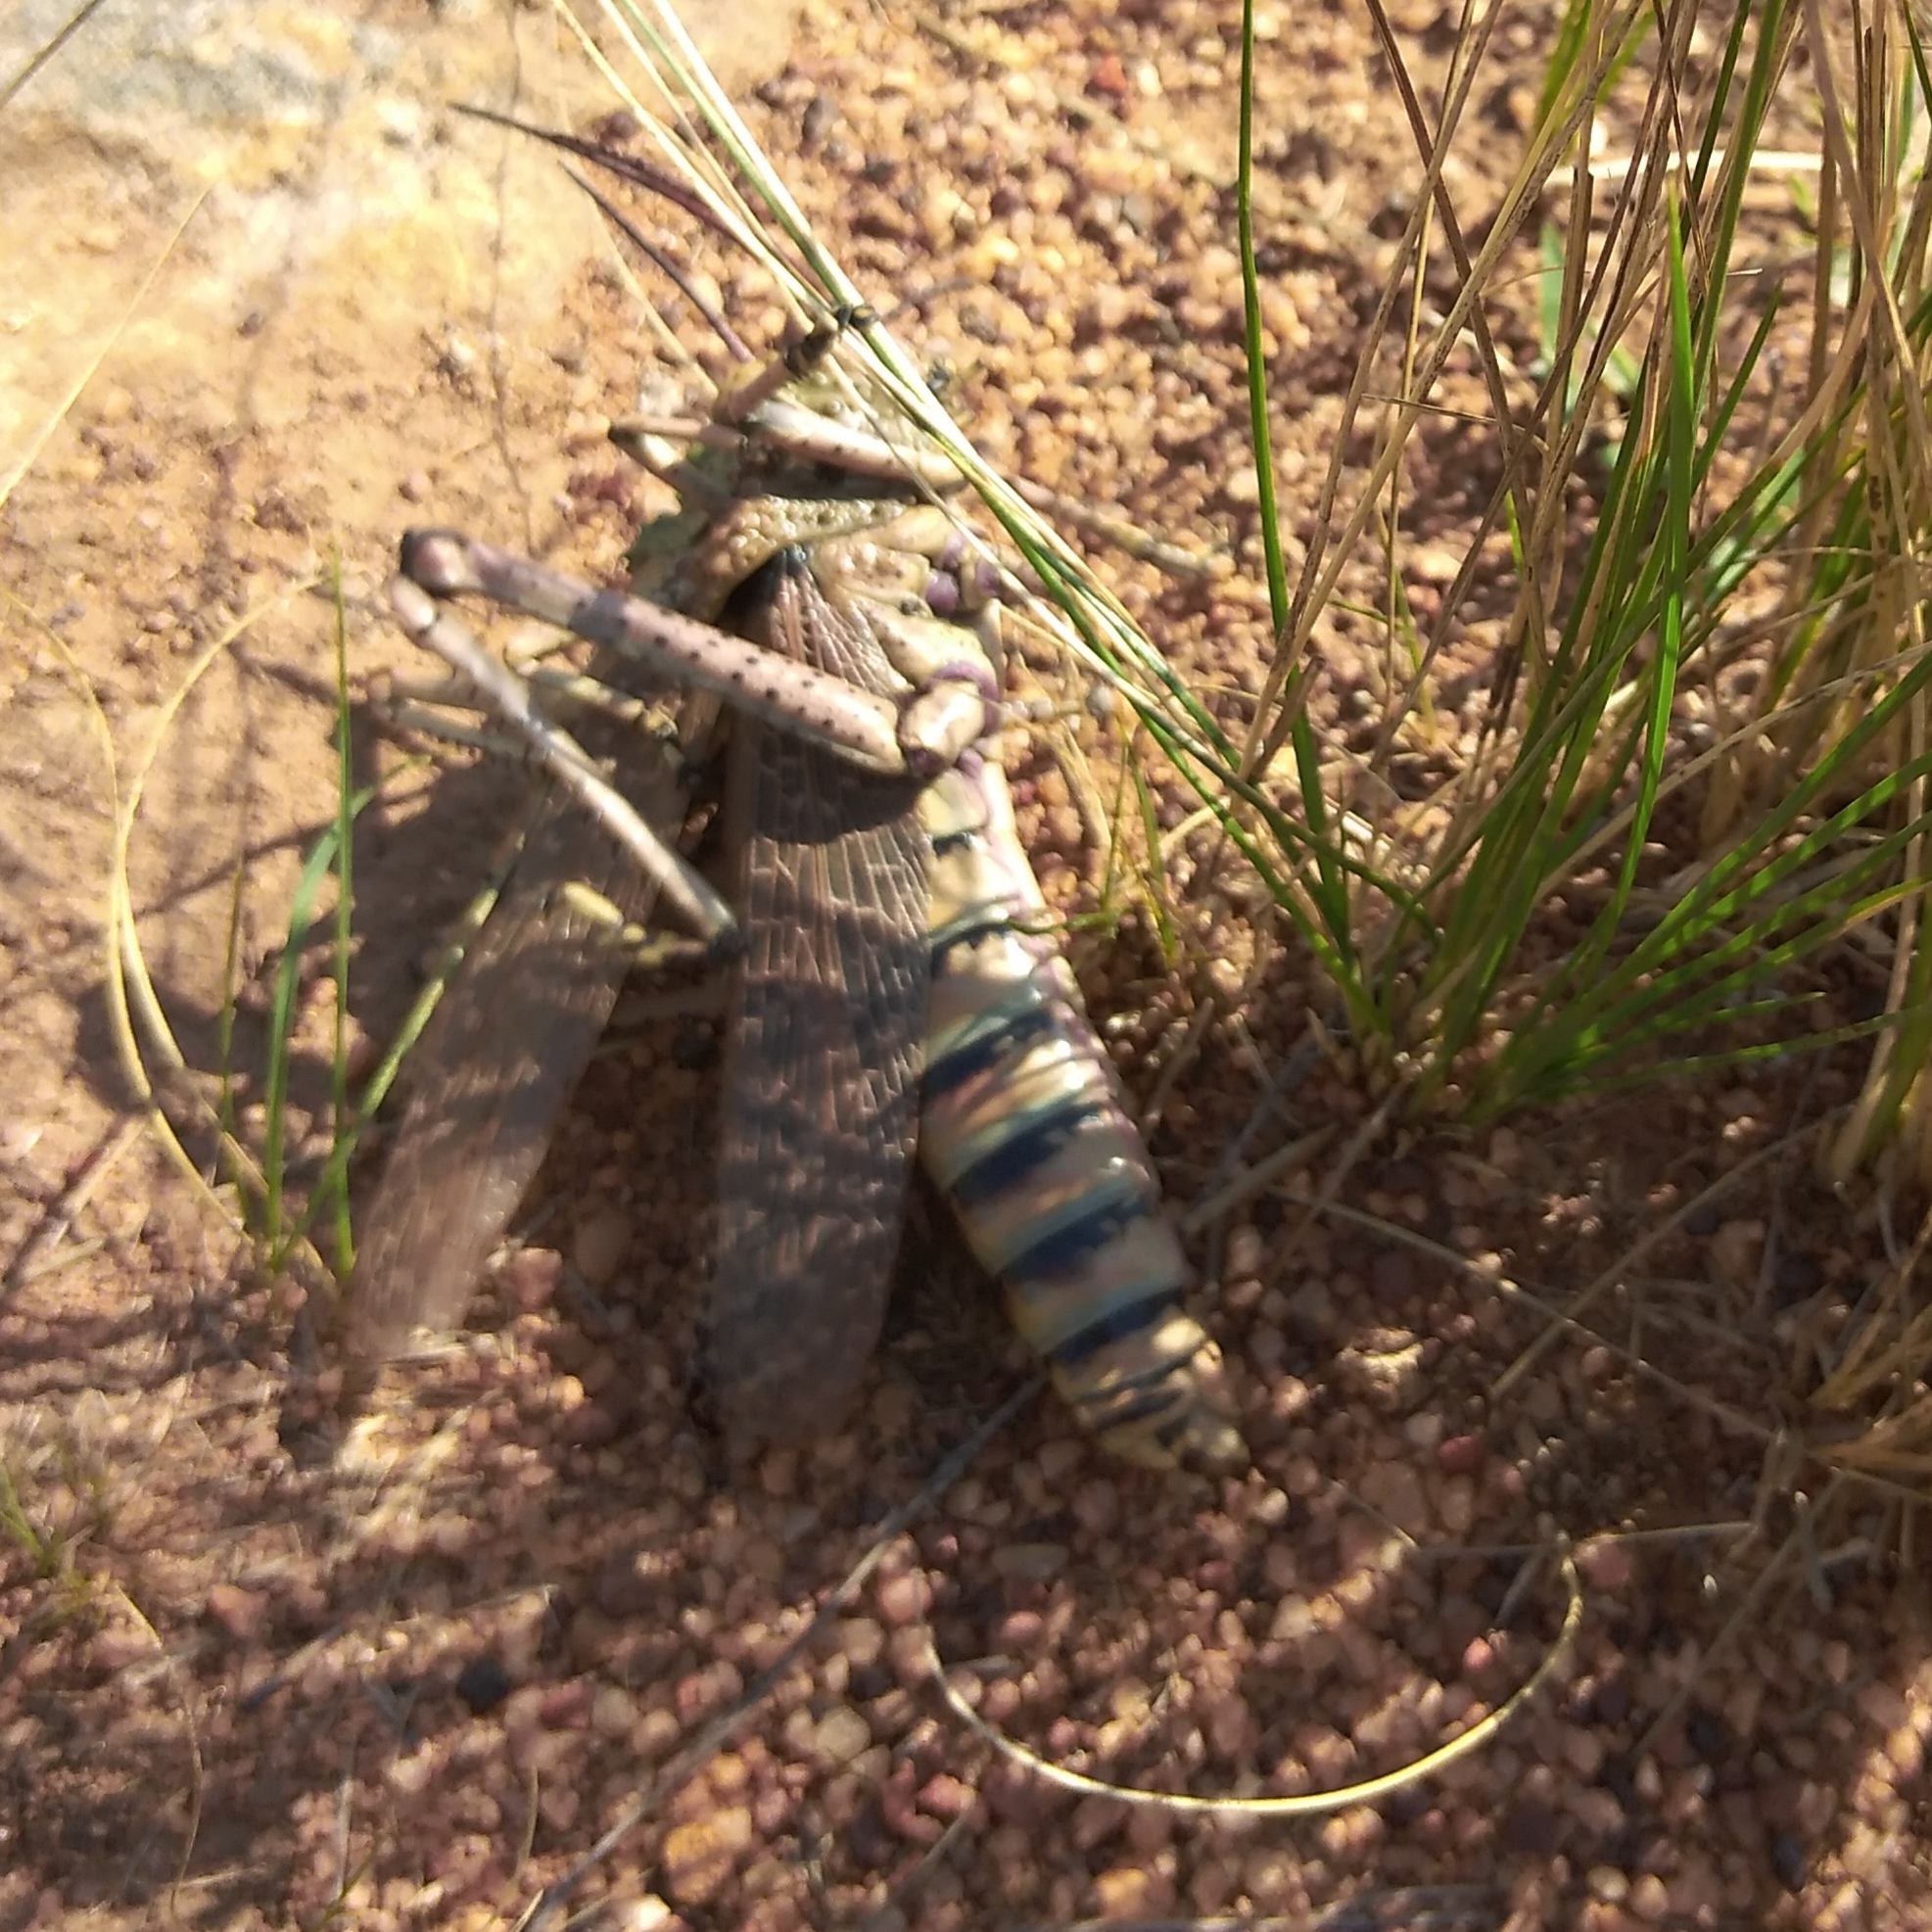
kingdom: Animalia
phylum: Arthropoda
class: Insecta
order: Orthoptera
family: Pyrgomorphidae
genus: Phymateus
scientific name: Phymateus leprosus
